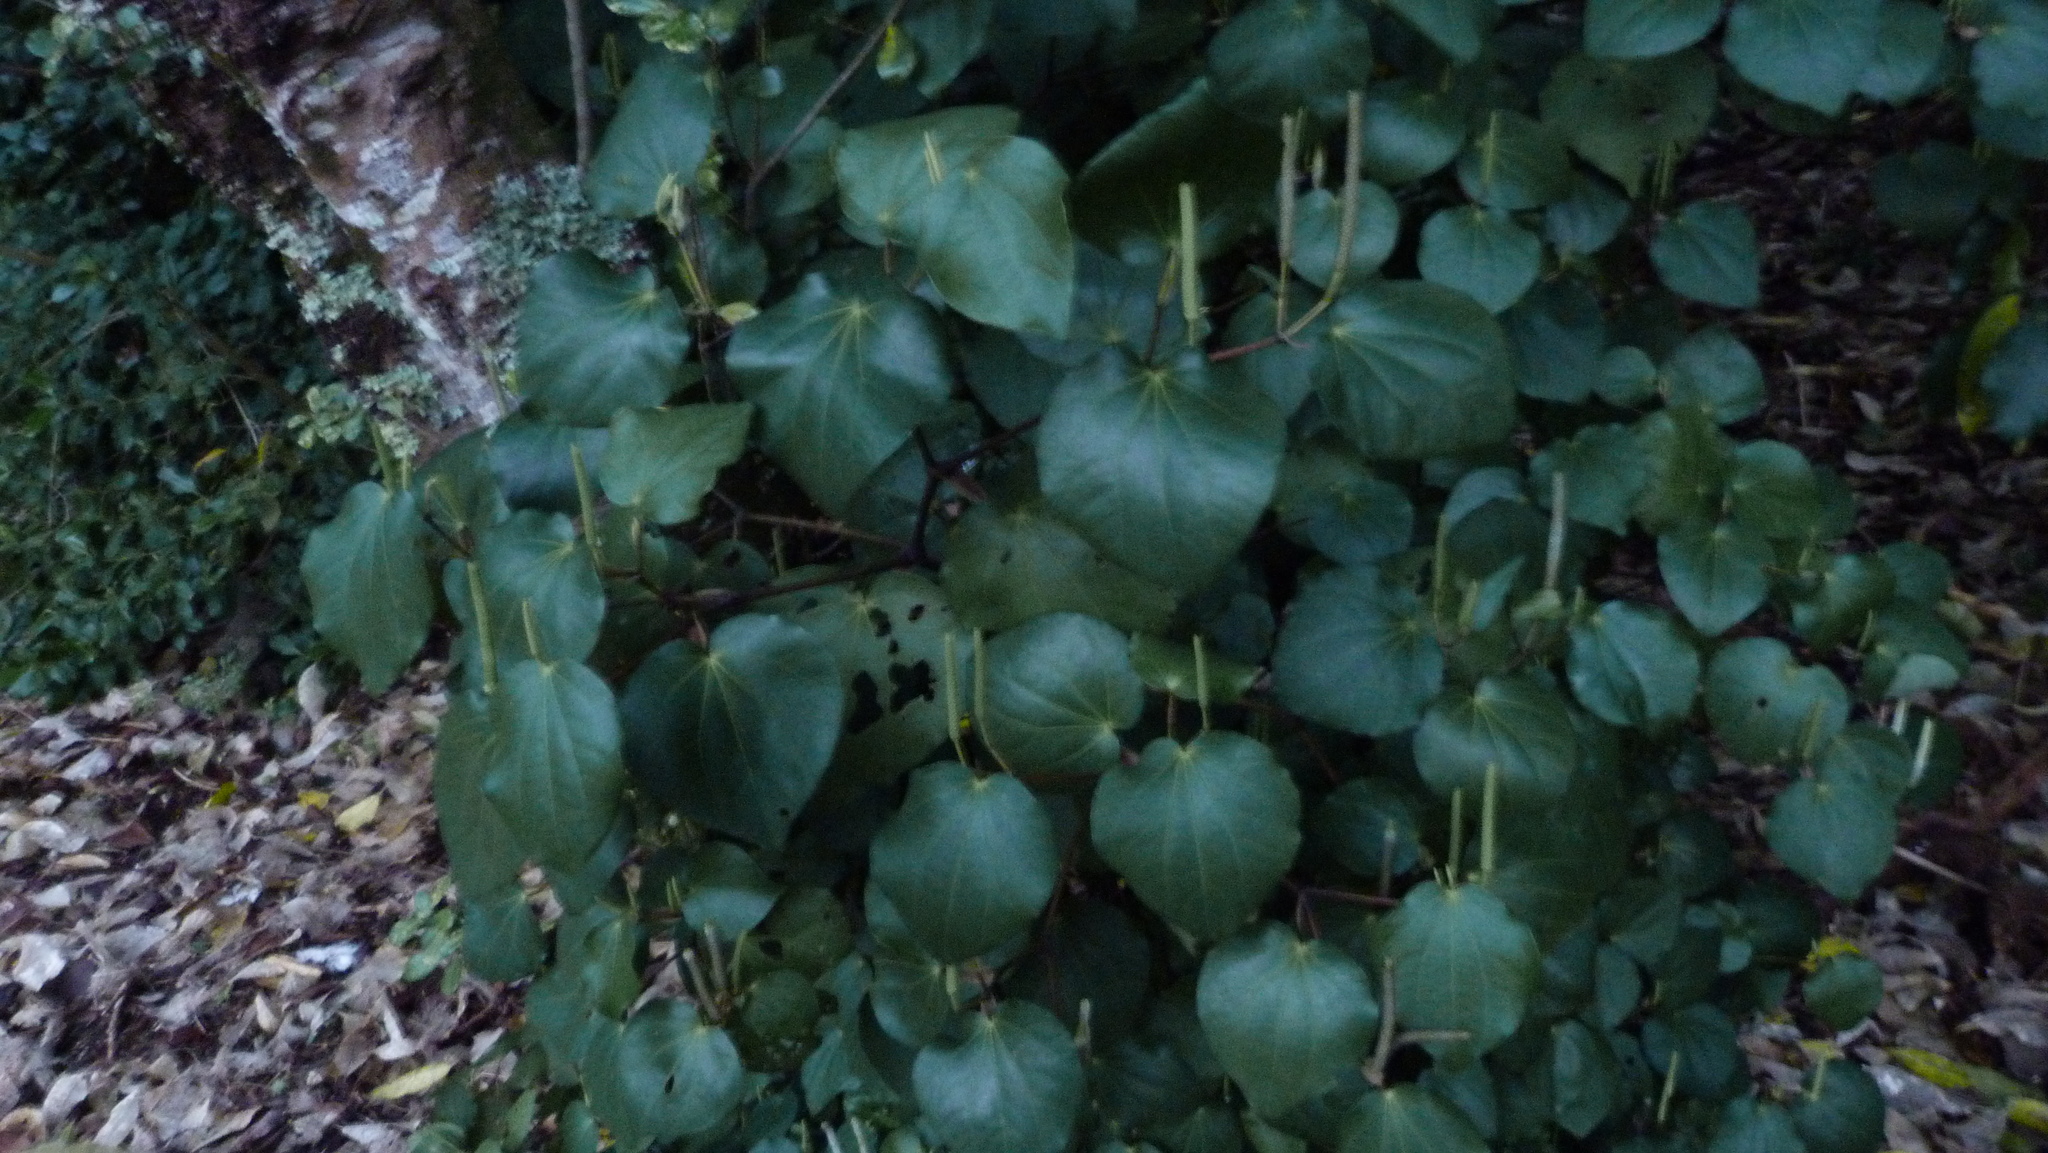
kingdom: Plantae
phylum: Tracheophyta
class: Magnoliopsida
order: Piperales
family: Piperaceae
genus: Macropiper
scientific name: Macropiper excelsum
